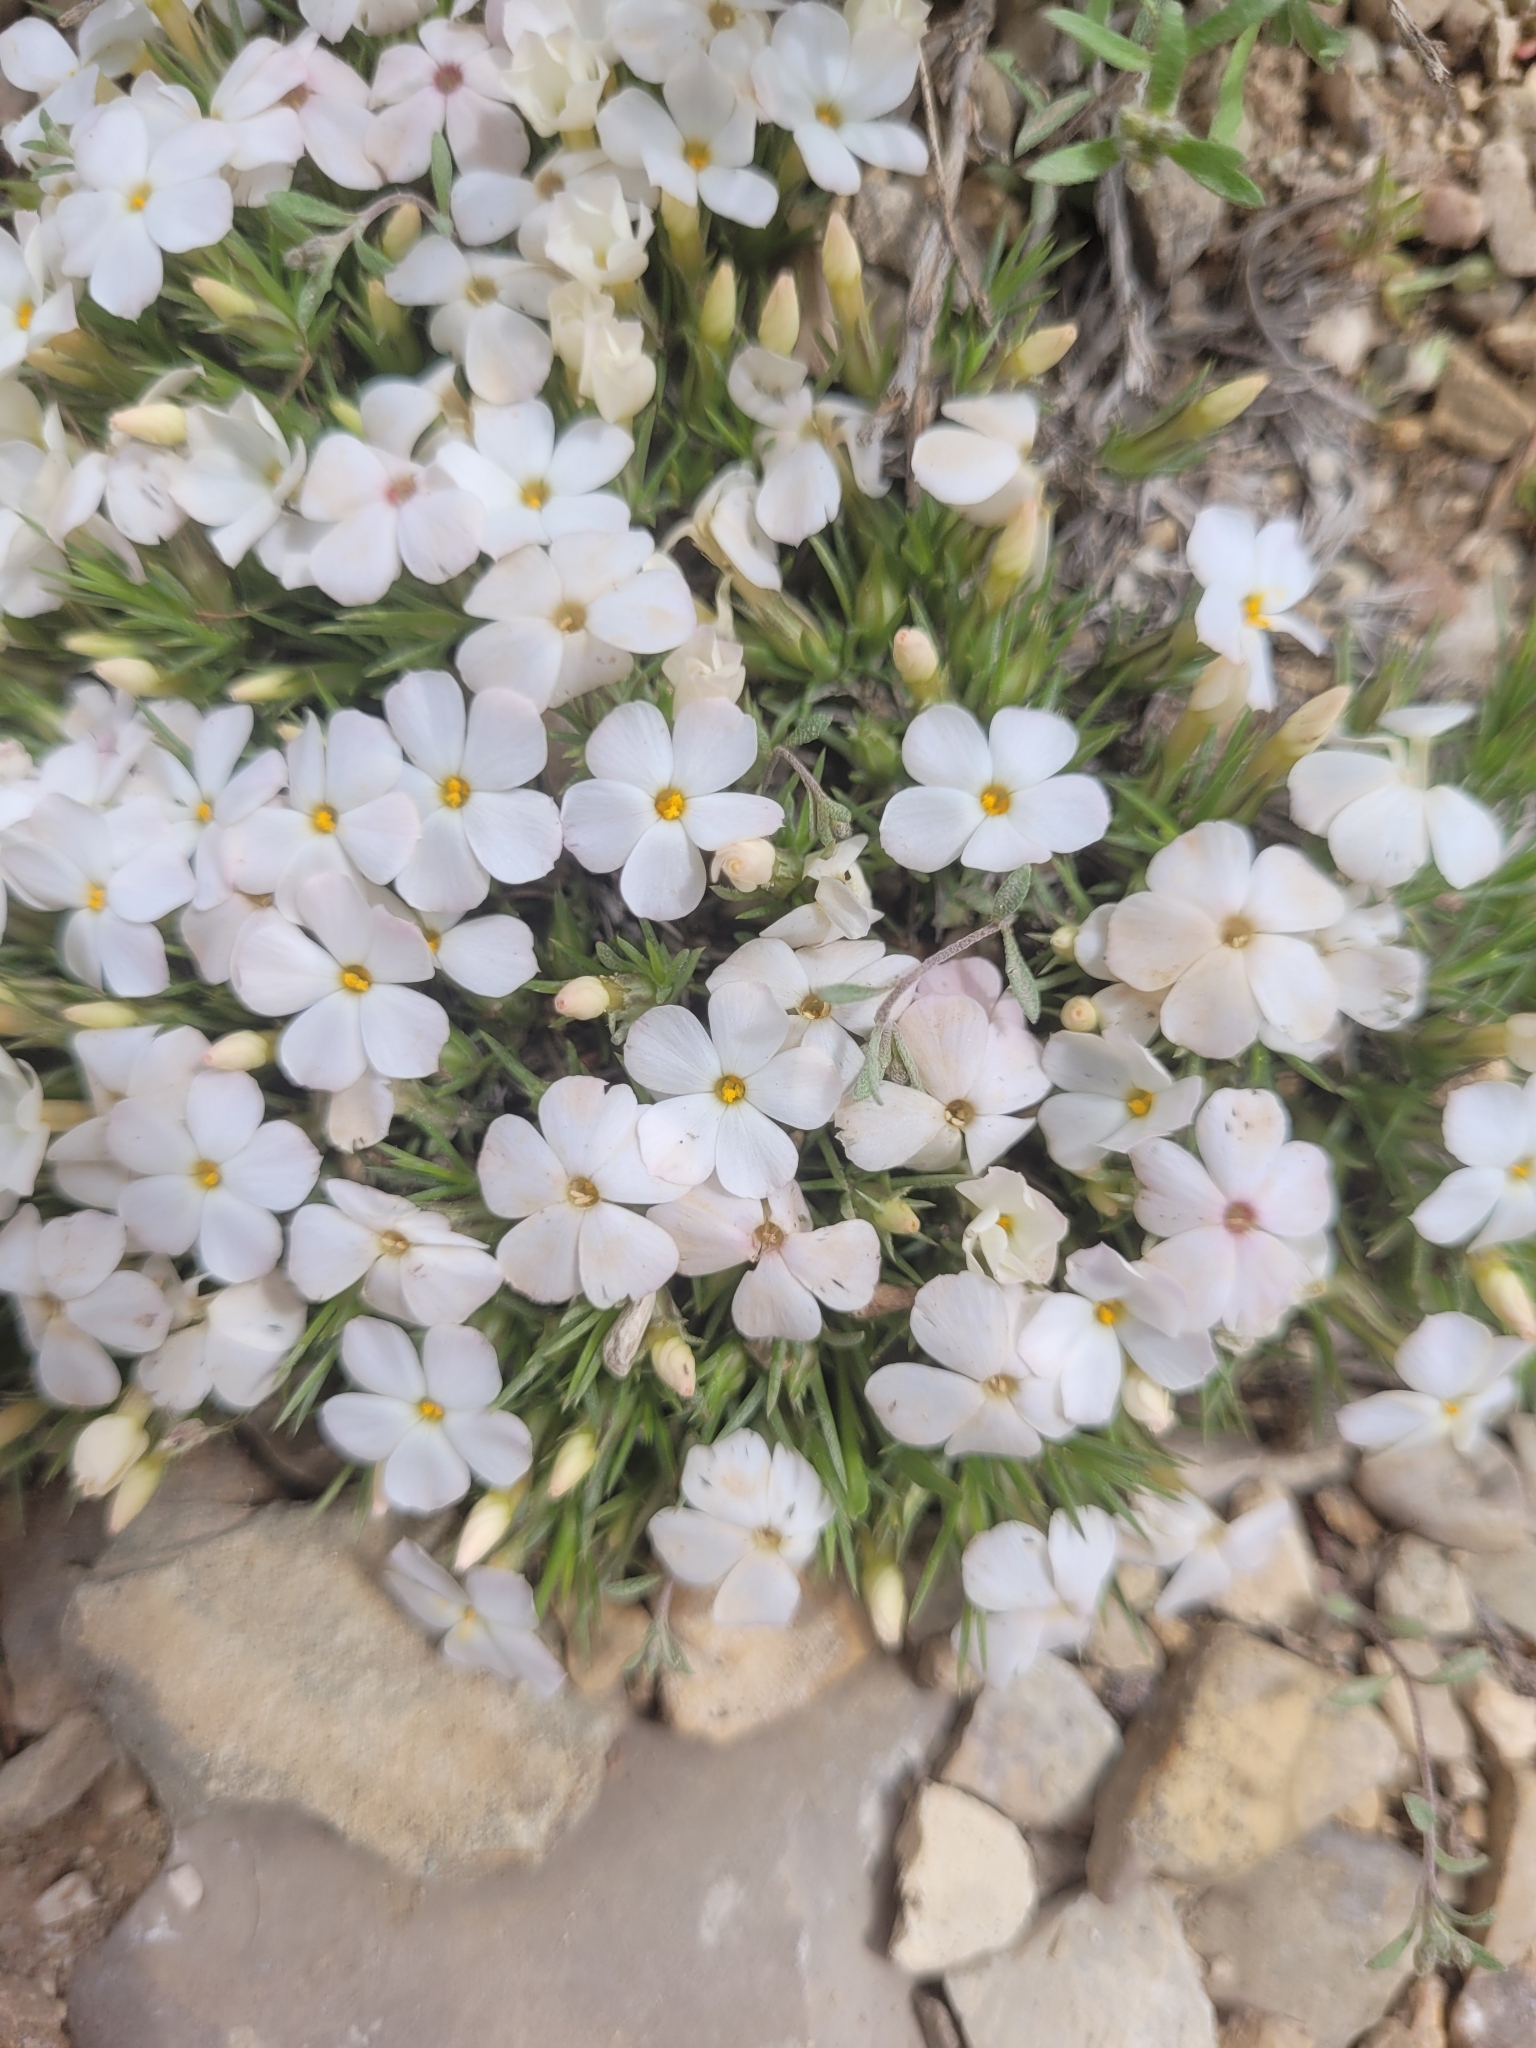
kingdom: Plantae
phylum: Tracheophyta
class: Magnoliopsida
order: Ericales
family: Polemoniaceae
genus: Phlox
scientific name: Phlox austromontana
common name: Desert phlox
